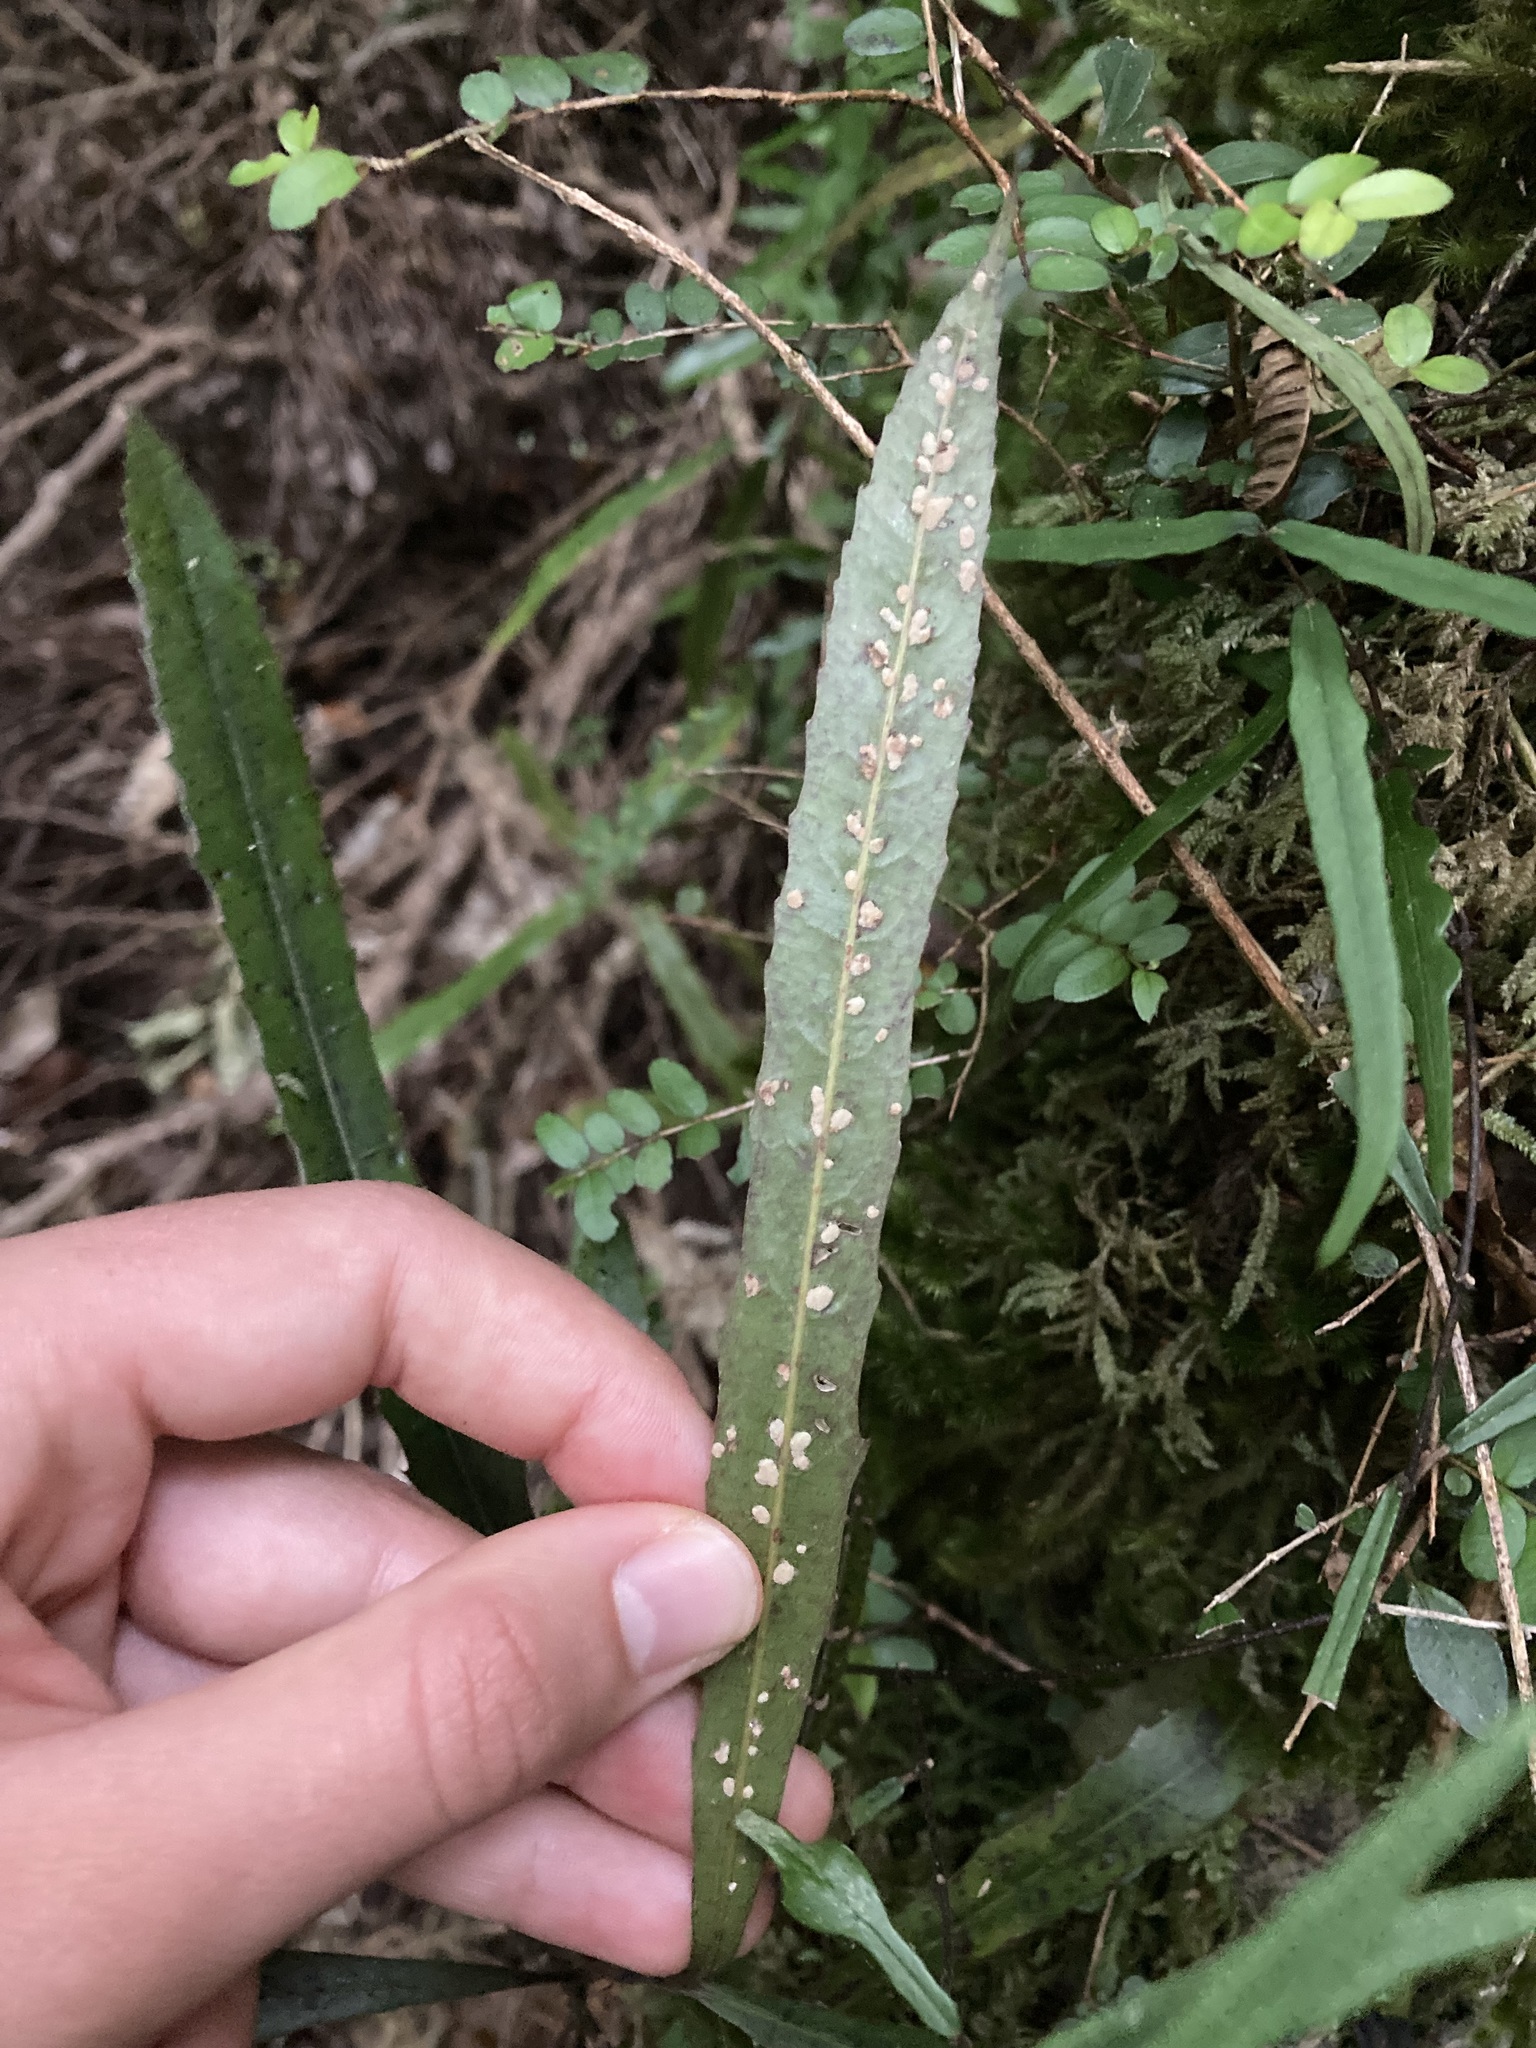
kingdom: Plantae
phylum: Tracheophyta
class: Magnoliopsida
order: Oxalidales
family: Elaeocarpaceae
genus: Elaeocarpus
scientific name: Elaeocarpus dentatus
